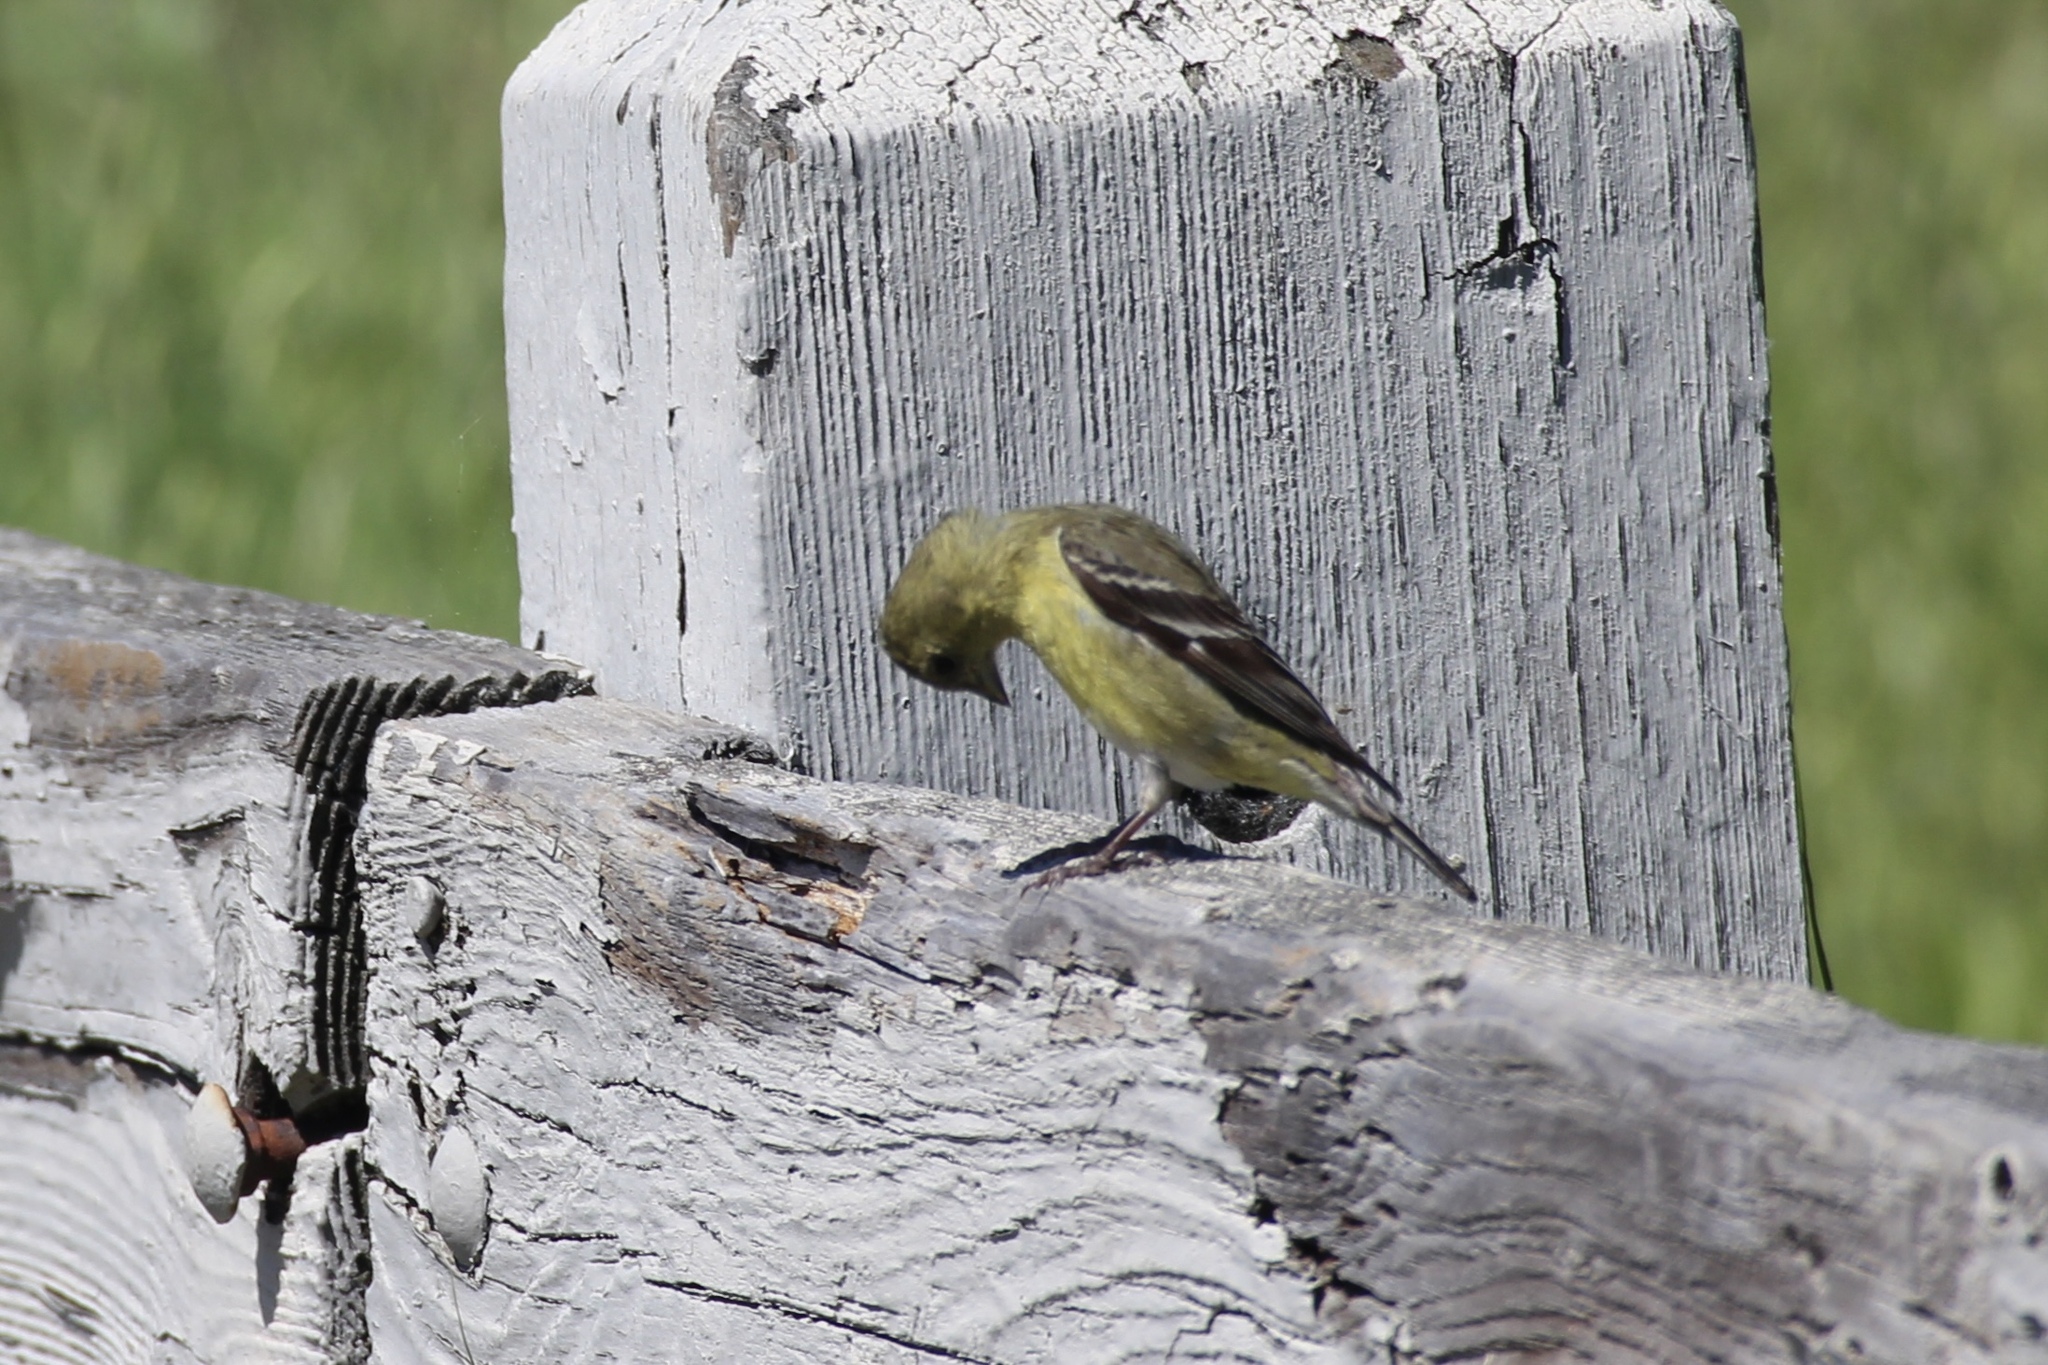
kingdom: Animalia
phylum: Chordata
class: Aves
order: Passeriformes
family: Fringillidae
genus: Spinus
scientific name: Spinus psaltria
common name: Lesser goldfinch
